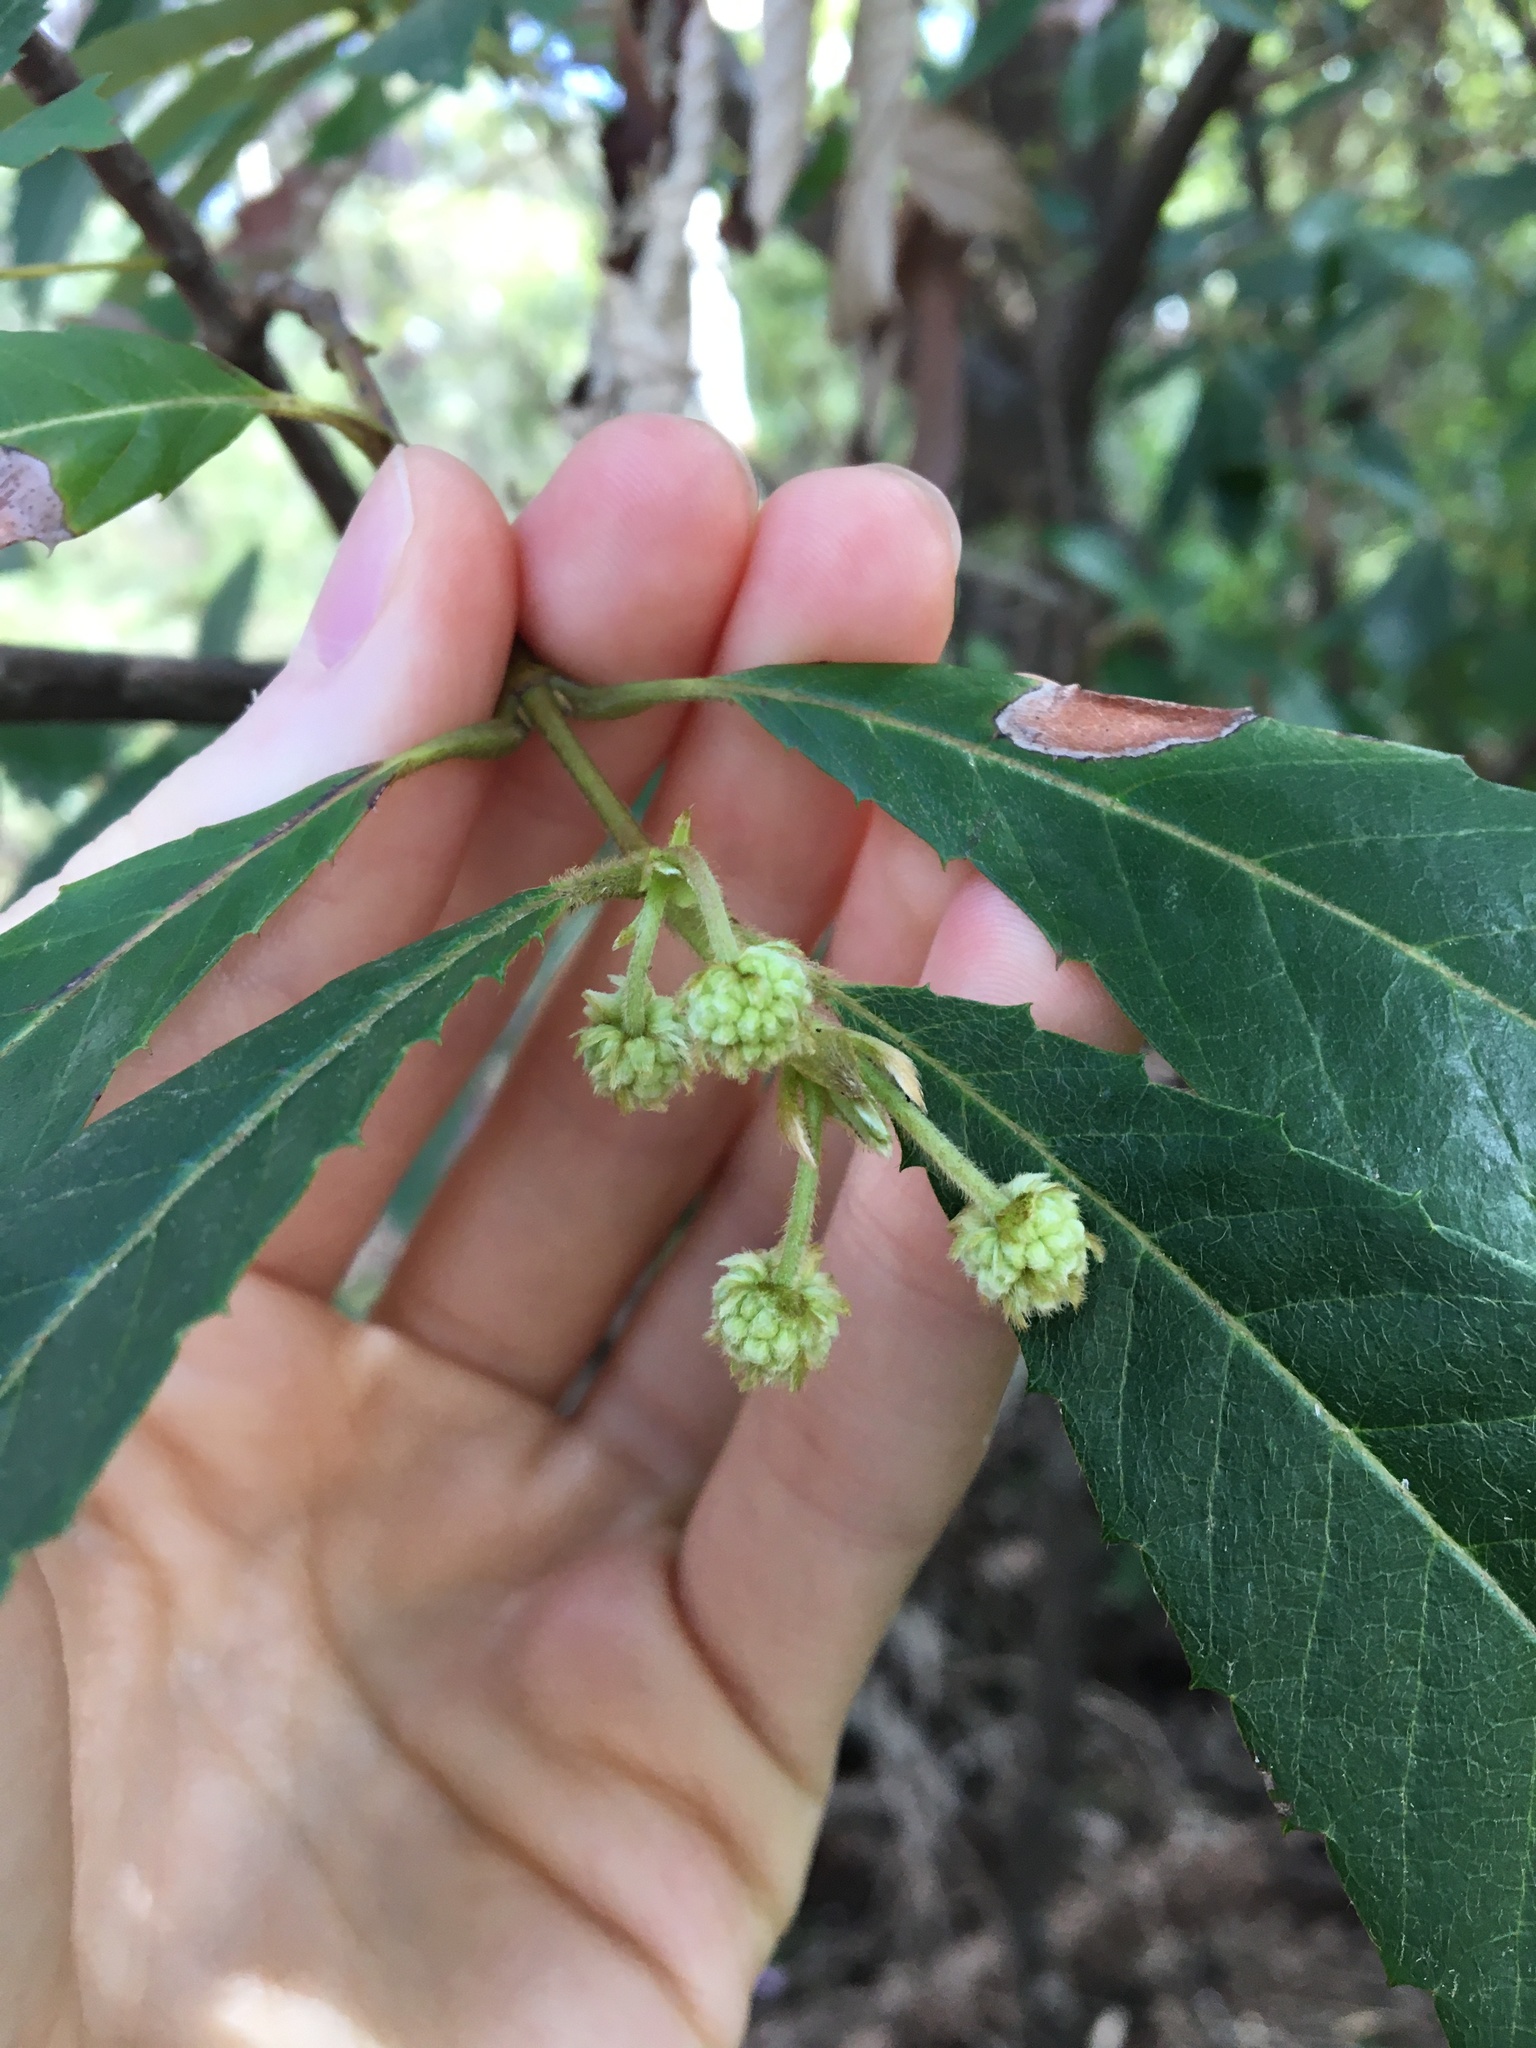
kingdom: Plantae
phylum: Tracheophyta
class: Magnoliopsida
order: Oxalidales
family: Cunoniaceae
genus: Callicoma
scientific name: Callicoma serratifolia
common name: Black wattle
